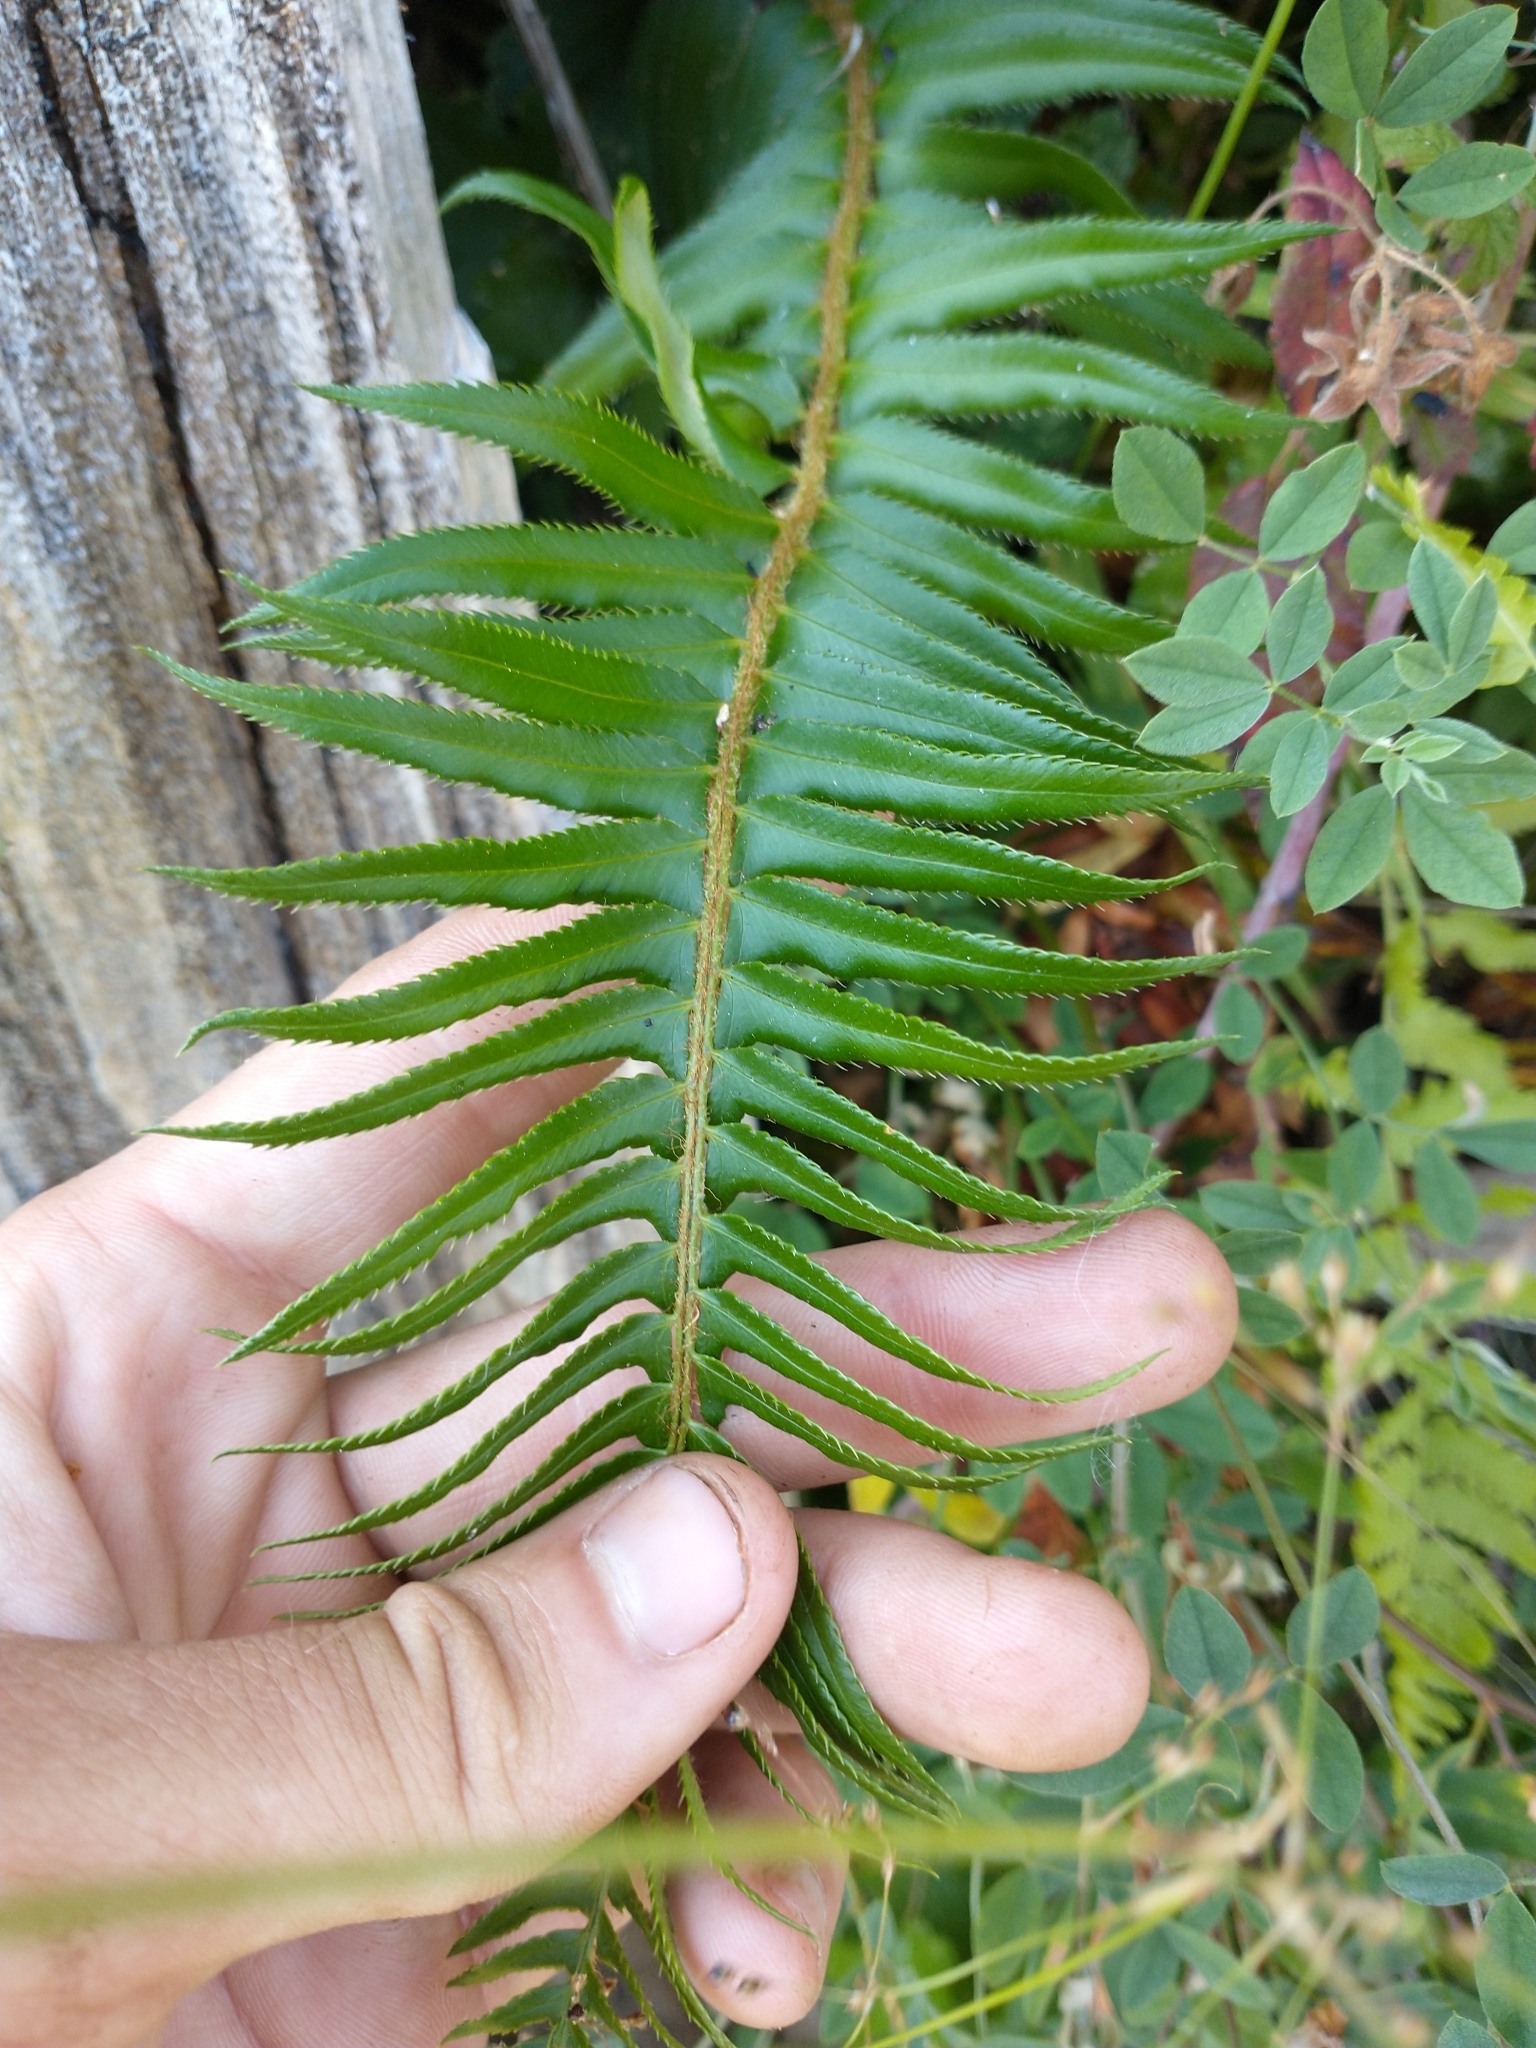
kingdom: Plantae
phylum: Tracheophyta
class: Polypodiopsida
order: Polypodiales
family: Dryopteridaceae
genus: Polystichum
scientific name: Polystichum munitum
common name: Western sword-fern
